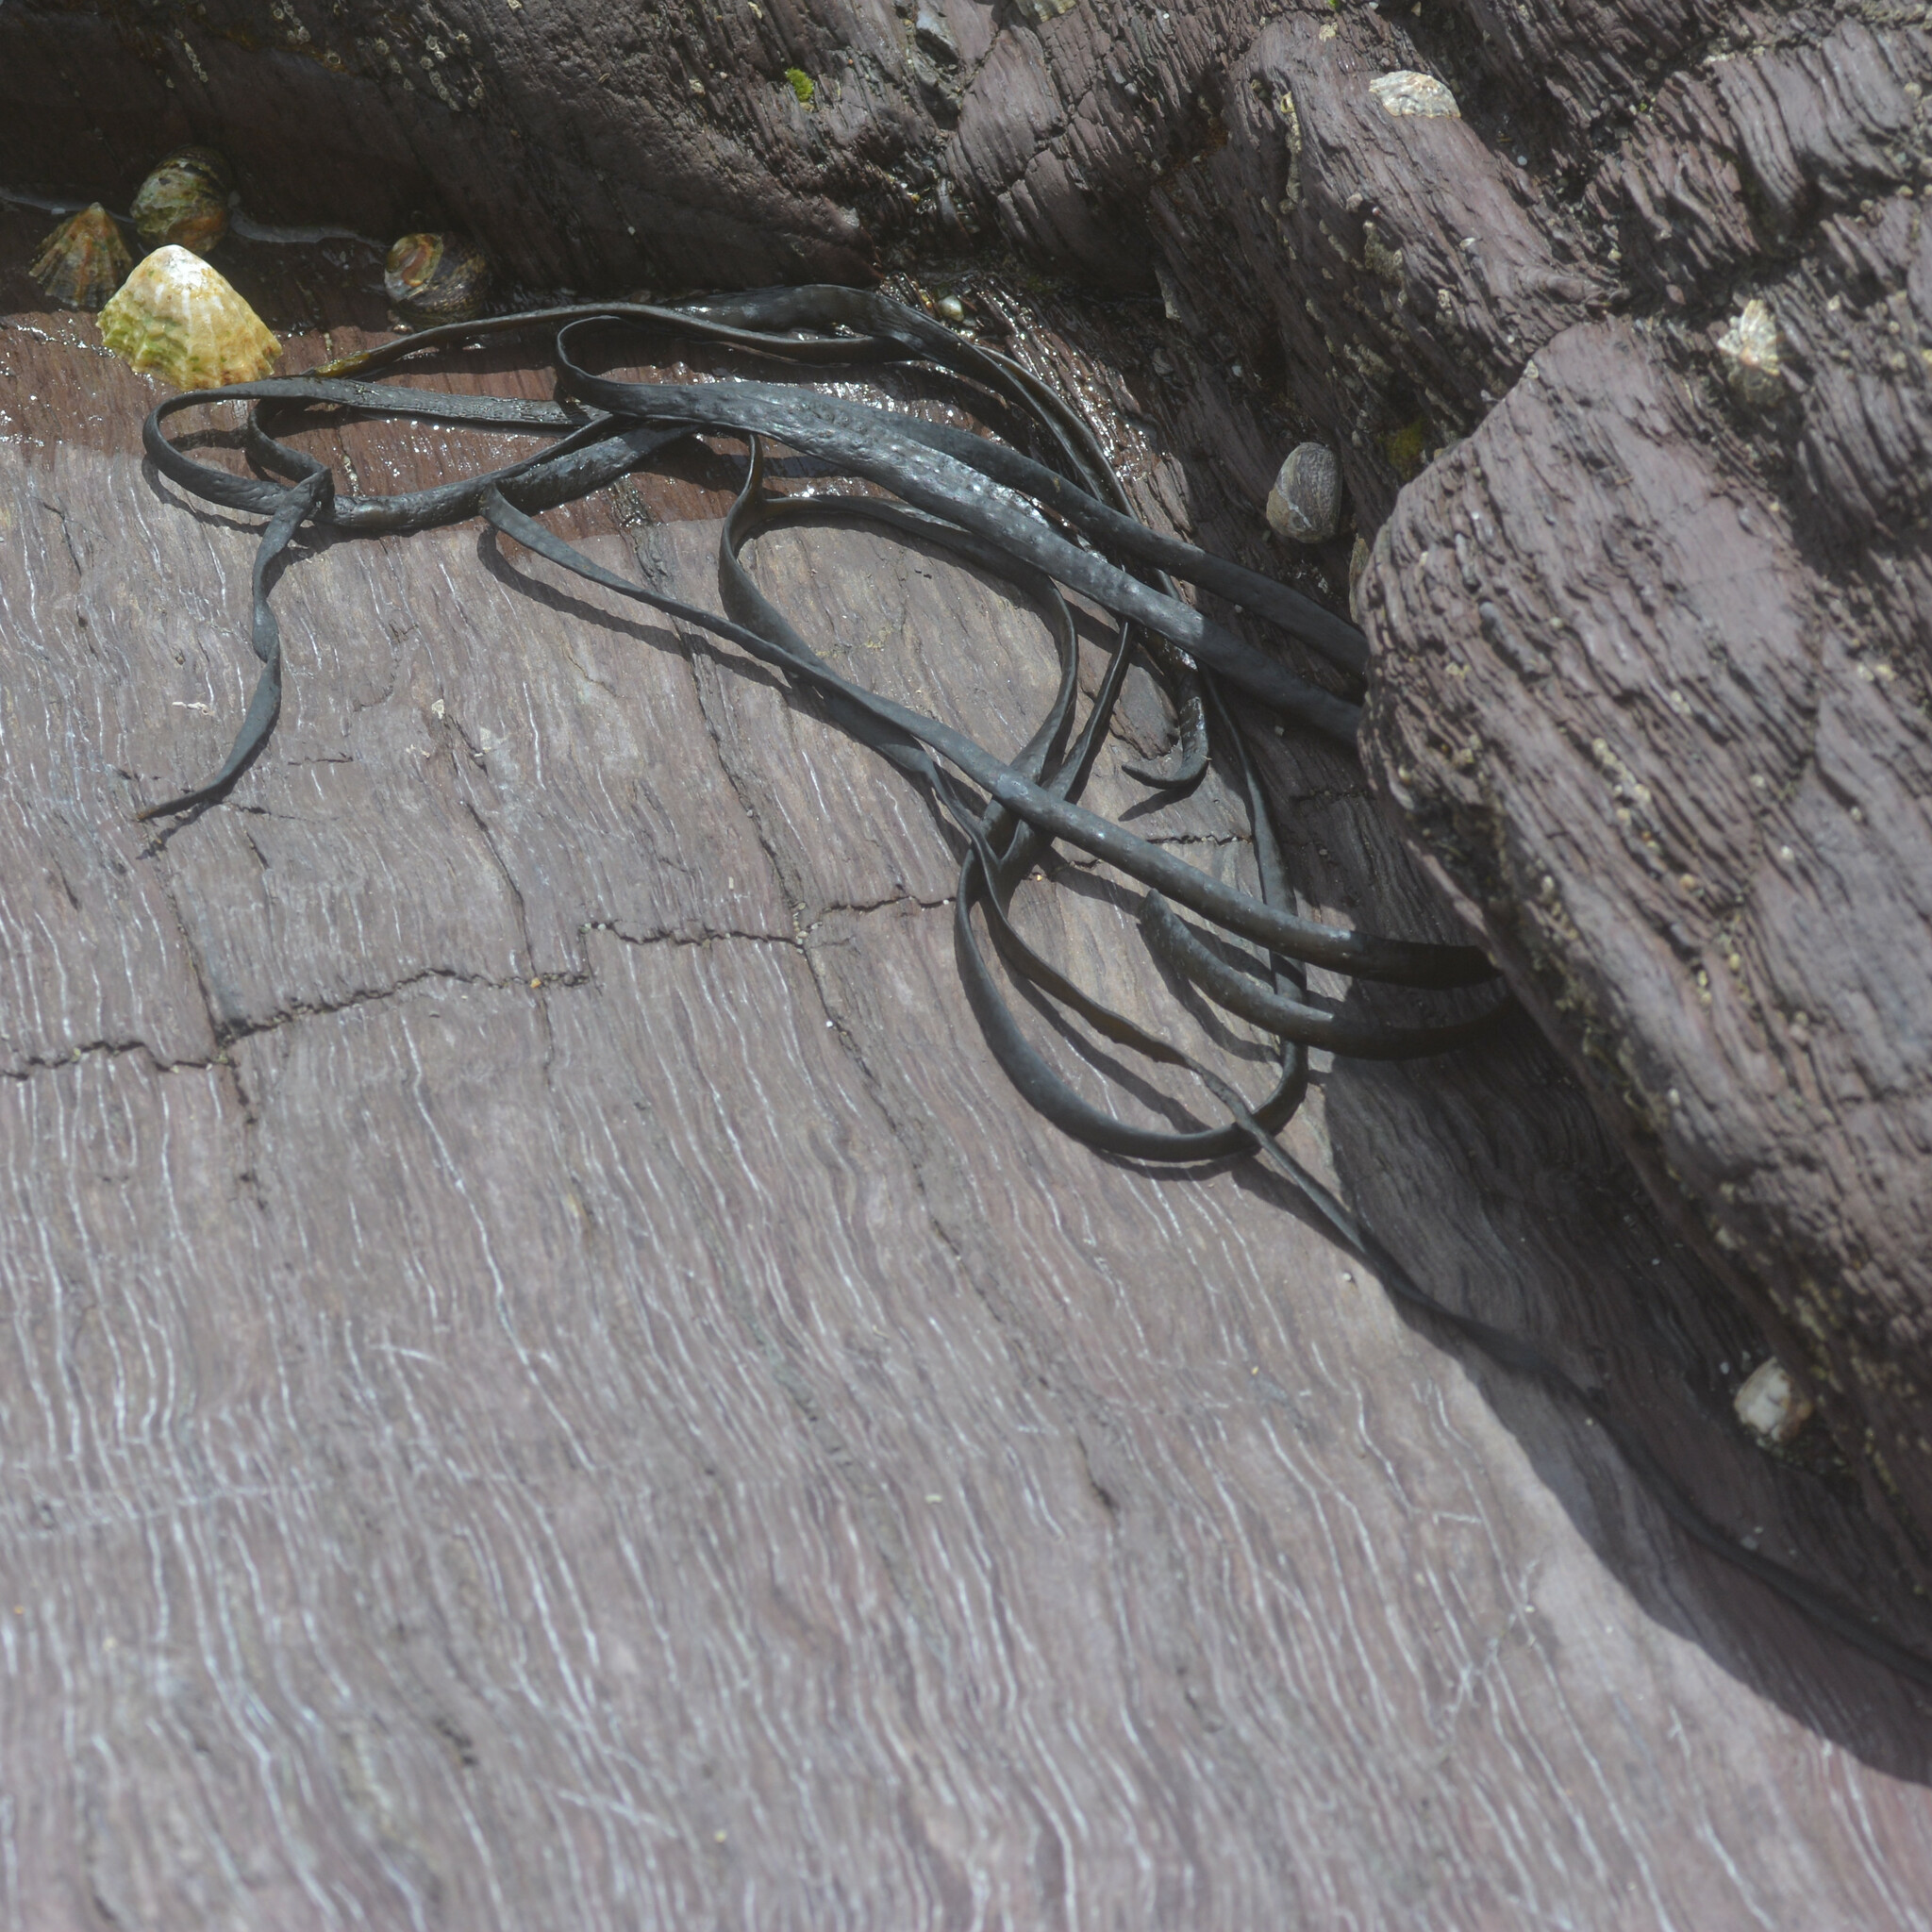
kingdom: Chromista
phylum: Ochrophyta
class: Phaeophyceae
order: Fucales
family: Himanthaliaceae
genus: Himanthalia
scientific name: Himanthalia elongata
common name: Sea-thong
